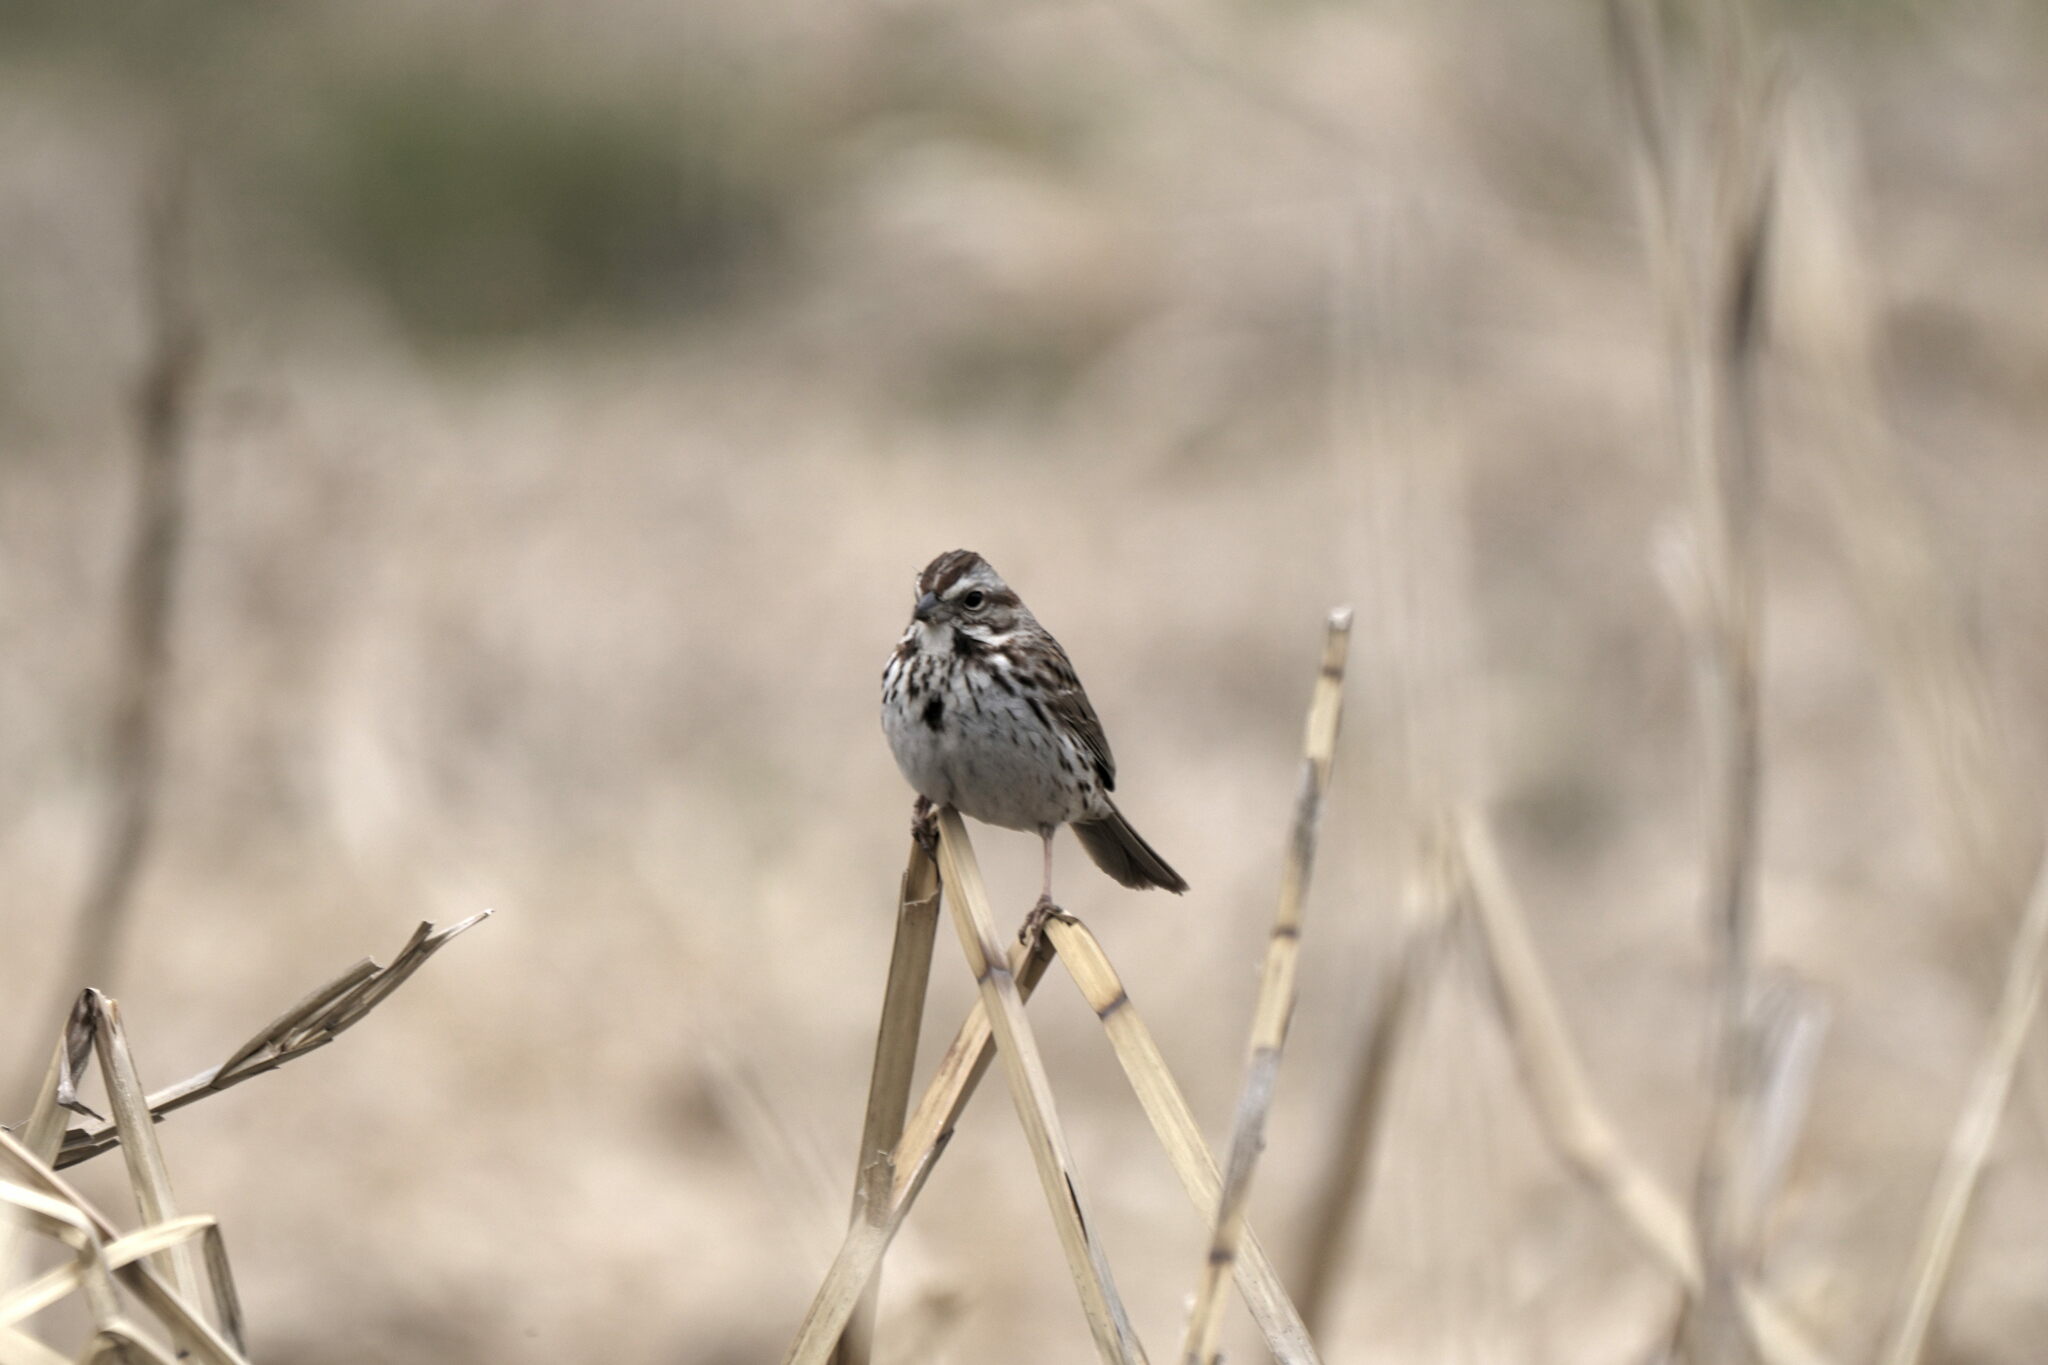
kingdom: Animalia
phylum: Chordata
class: Aves
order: Passeriformes
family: Passerellidae
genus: Melospiza
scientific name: Melospiza melodia
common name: Song sparrow
